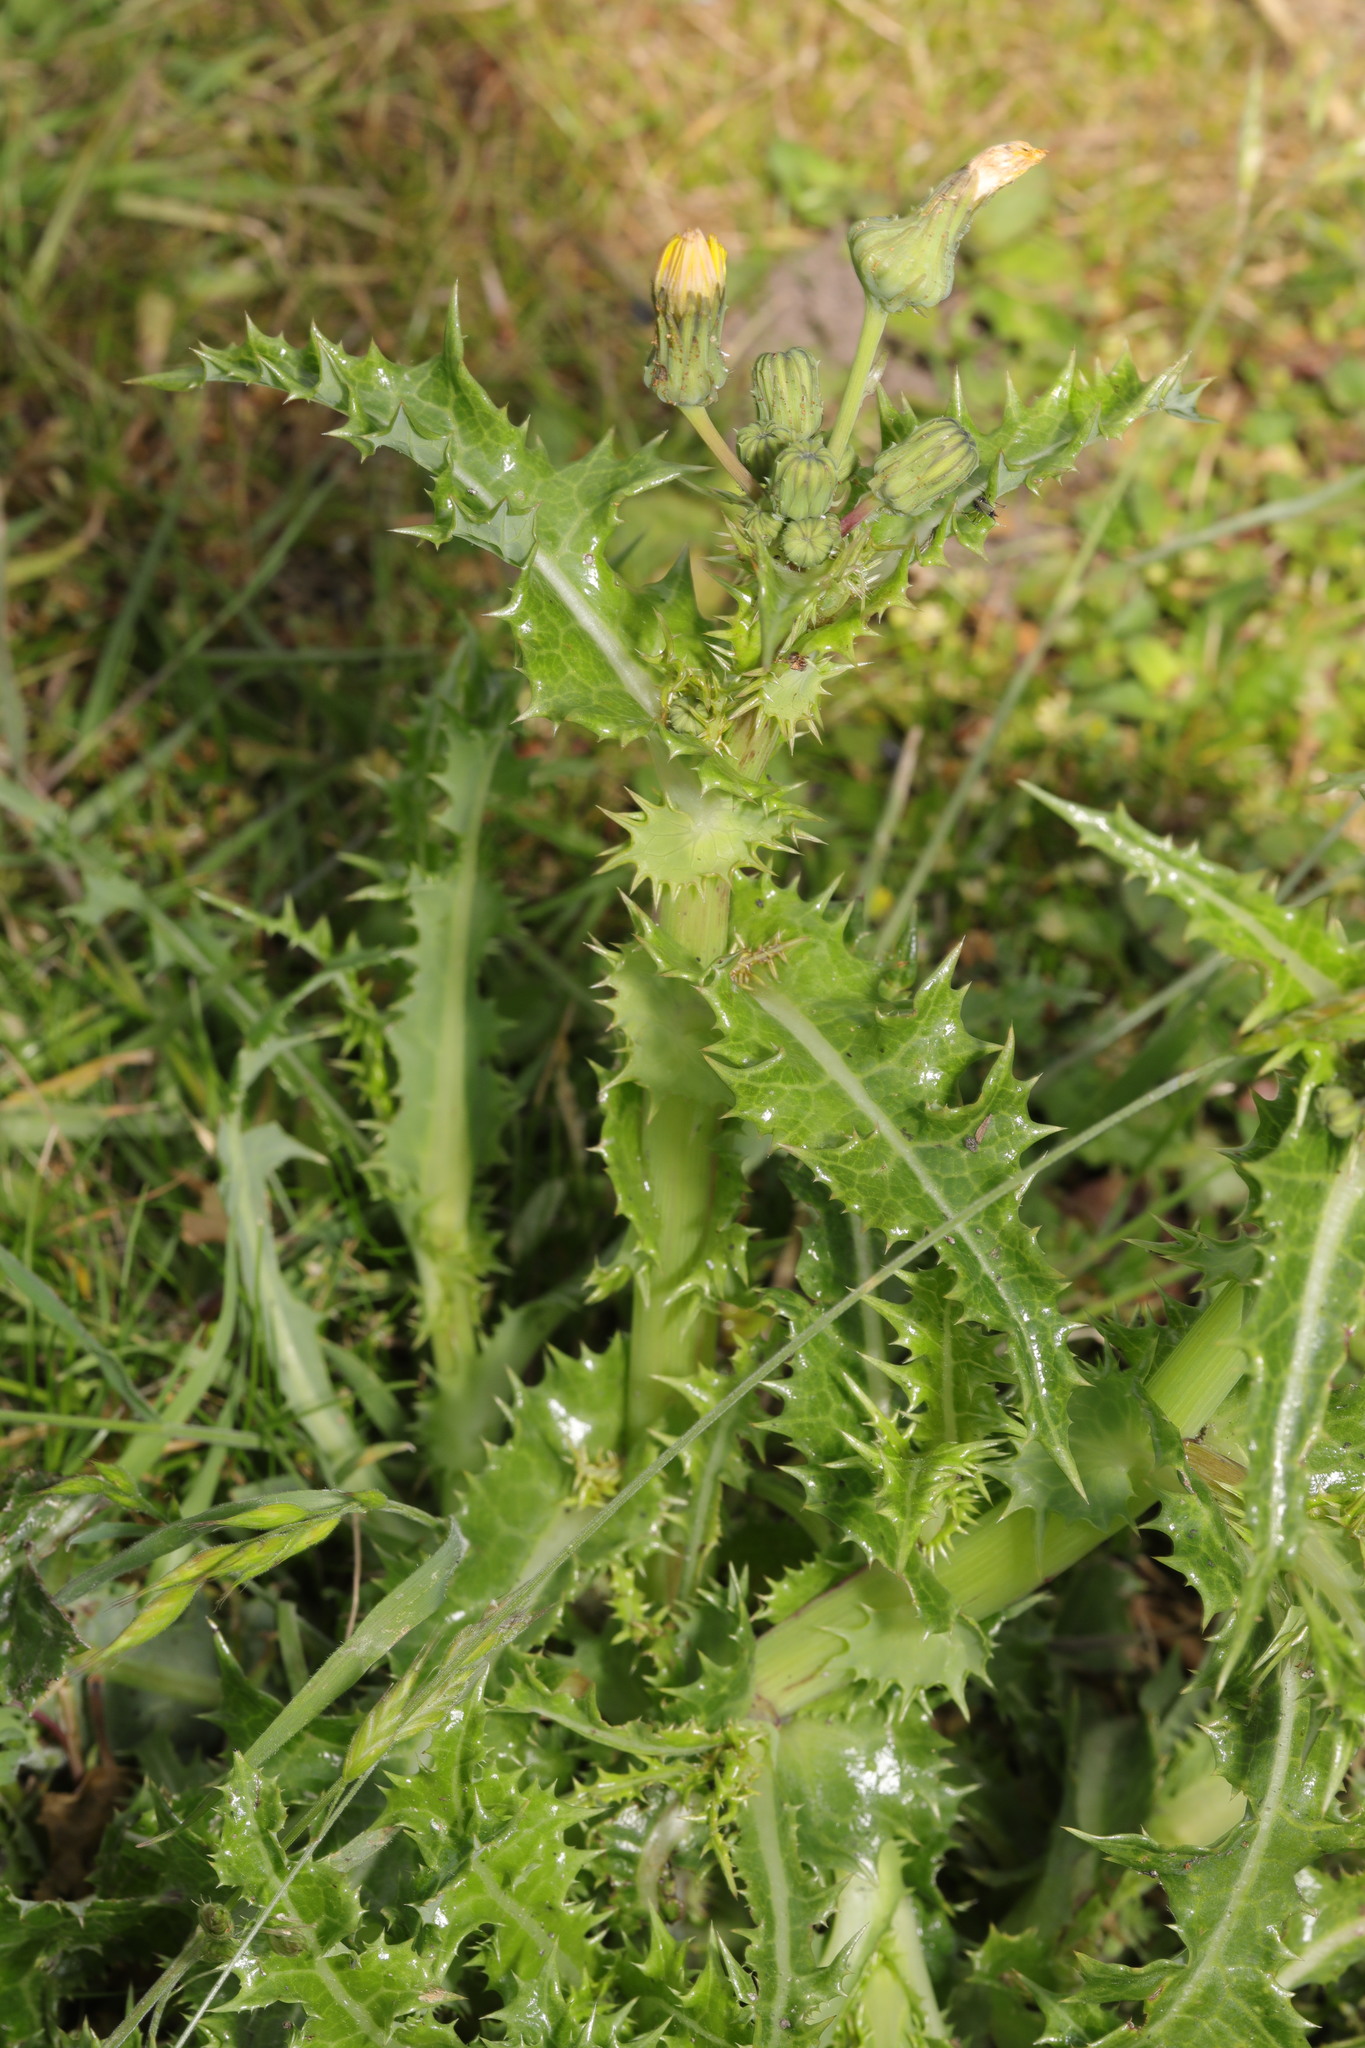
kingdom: Plantae
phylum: Tracheophyta
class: Magnoliopsida
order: Asterales
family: Asteraceae
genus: Sonchus
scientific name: Sonchus asper
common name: Prickly sow-thistle
